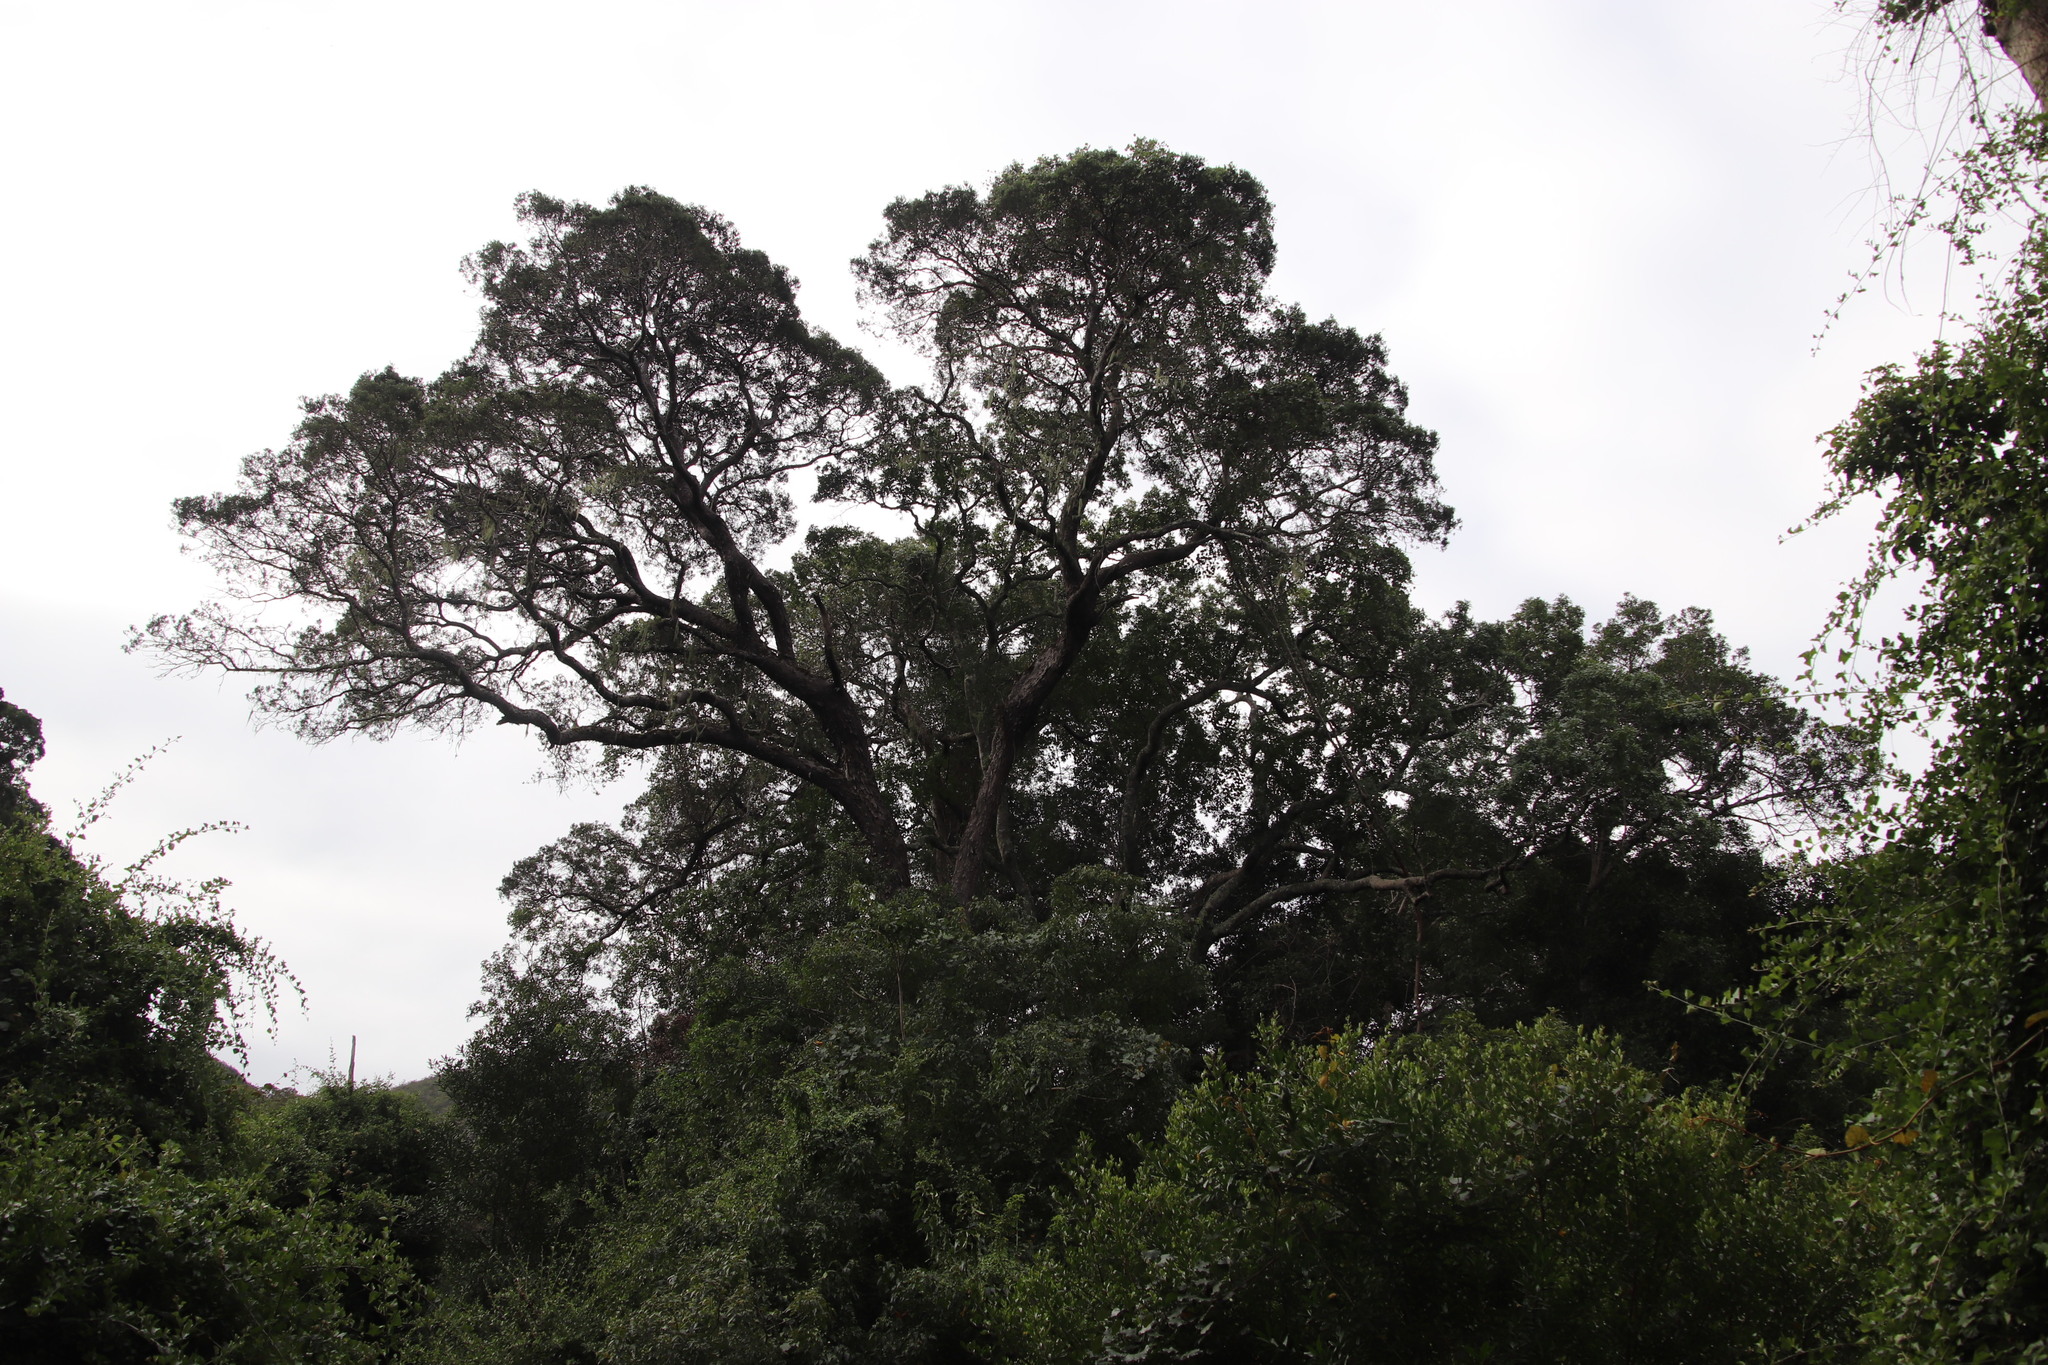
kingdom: Plantae
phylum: Tracheophyta
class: Pinopsida
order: Pinales
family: Podocarpaceae
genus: Afrocarpus
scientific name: Afrocarpus falcatus
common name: Bastard yellowwood
